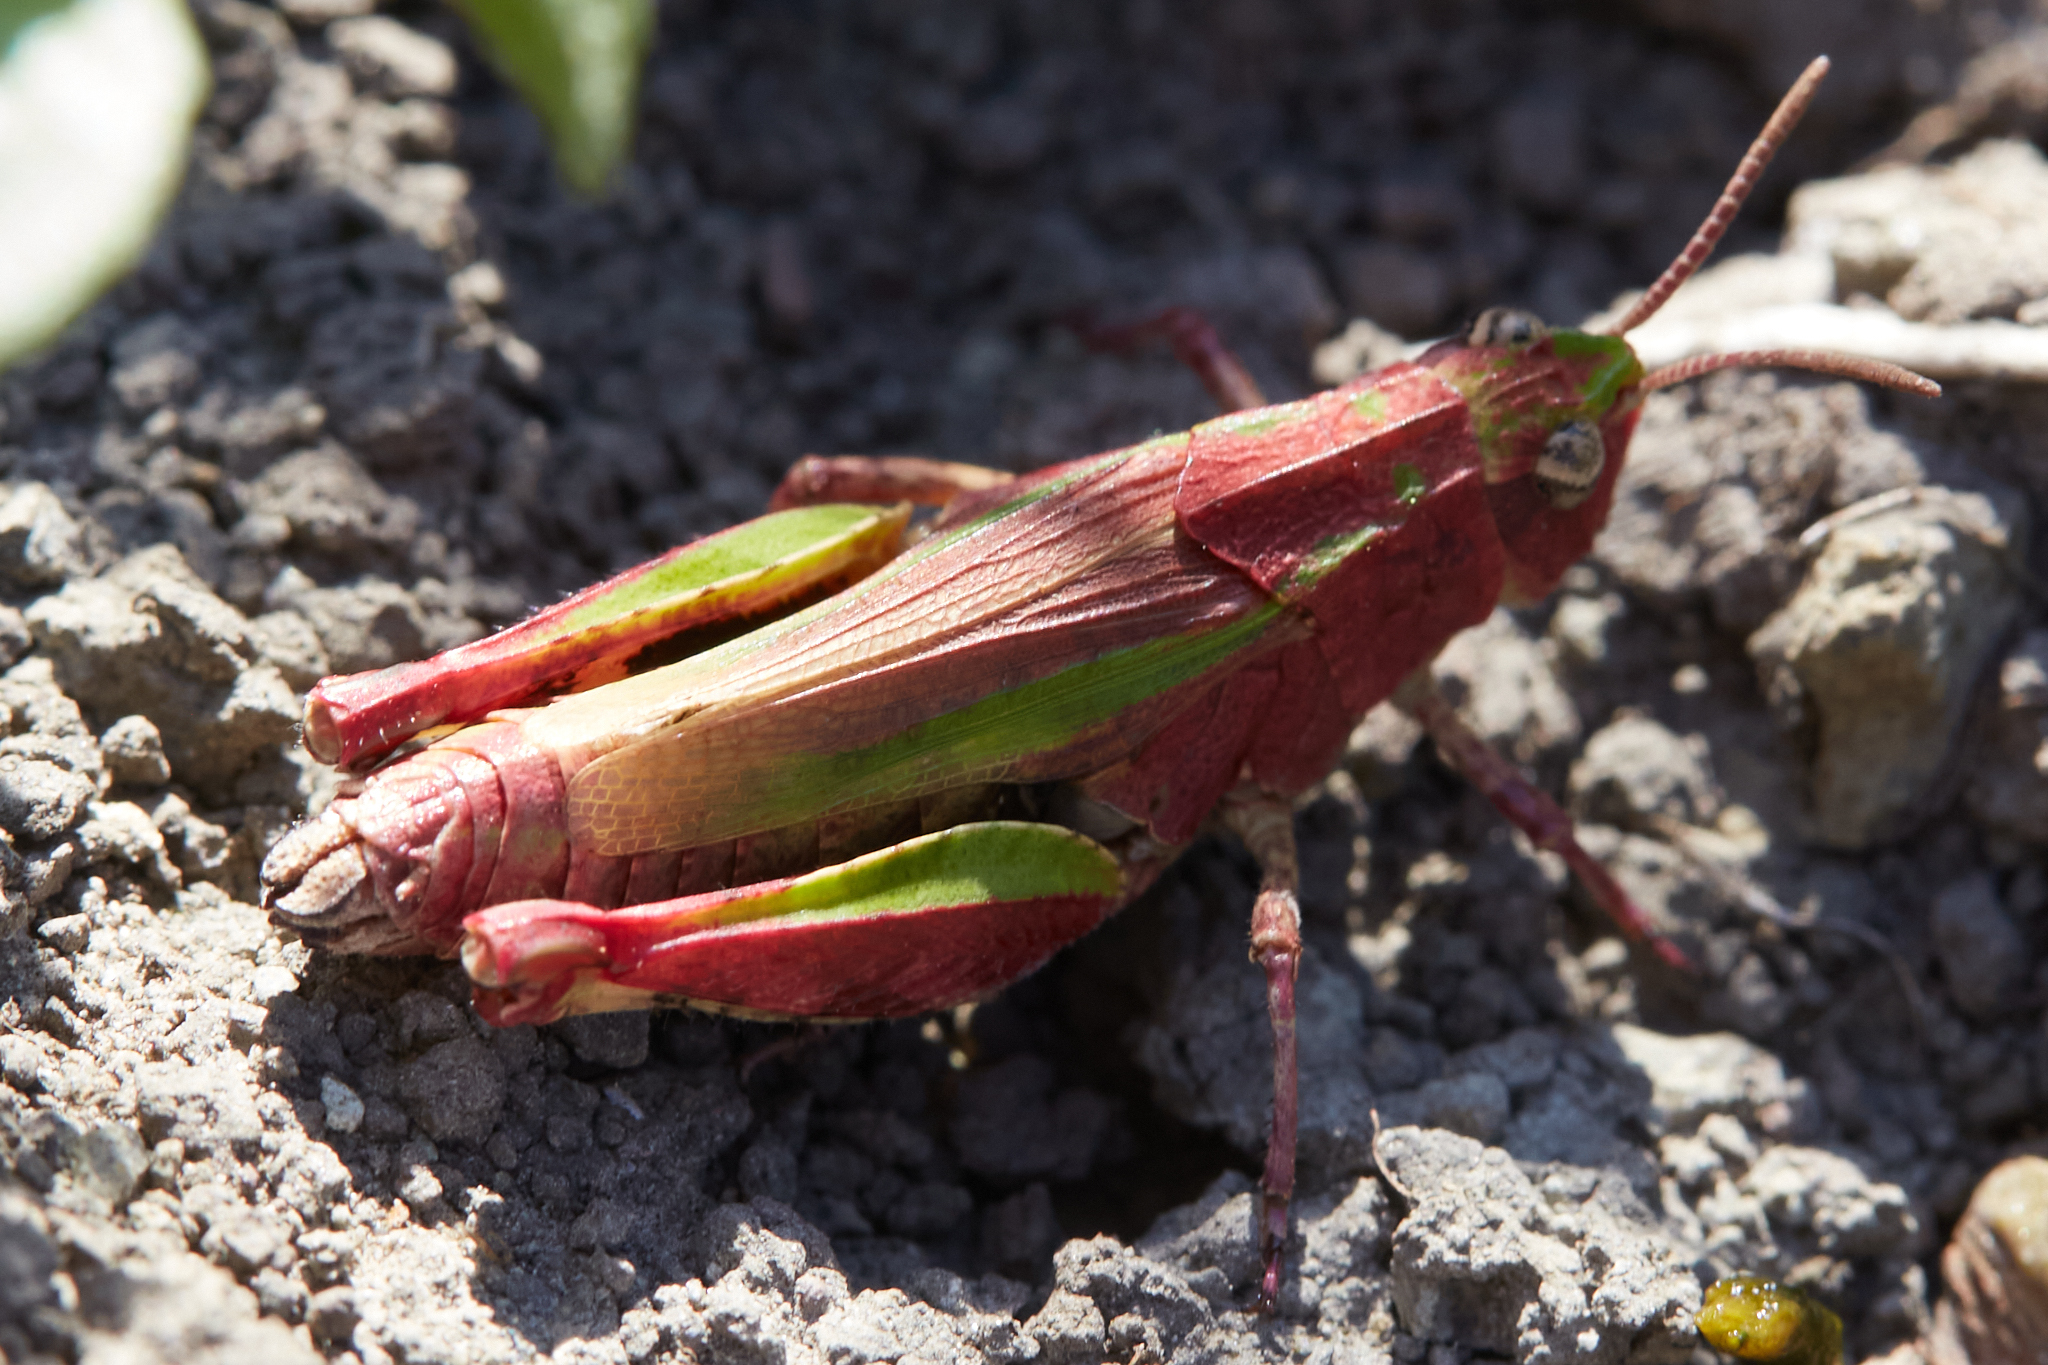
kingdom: Animalia
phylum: Arthropoda
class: Insecta
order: Orthoptera
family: Acrididae
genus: Chimarocephala
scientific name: Chimarocephala pacifica
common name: Painted meadow grasshopper
